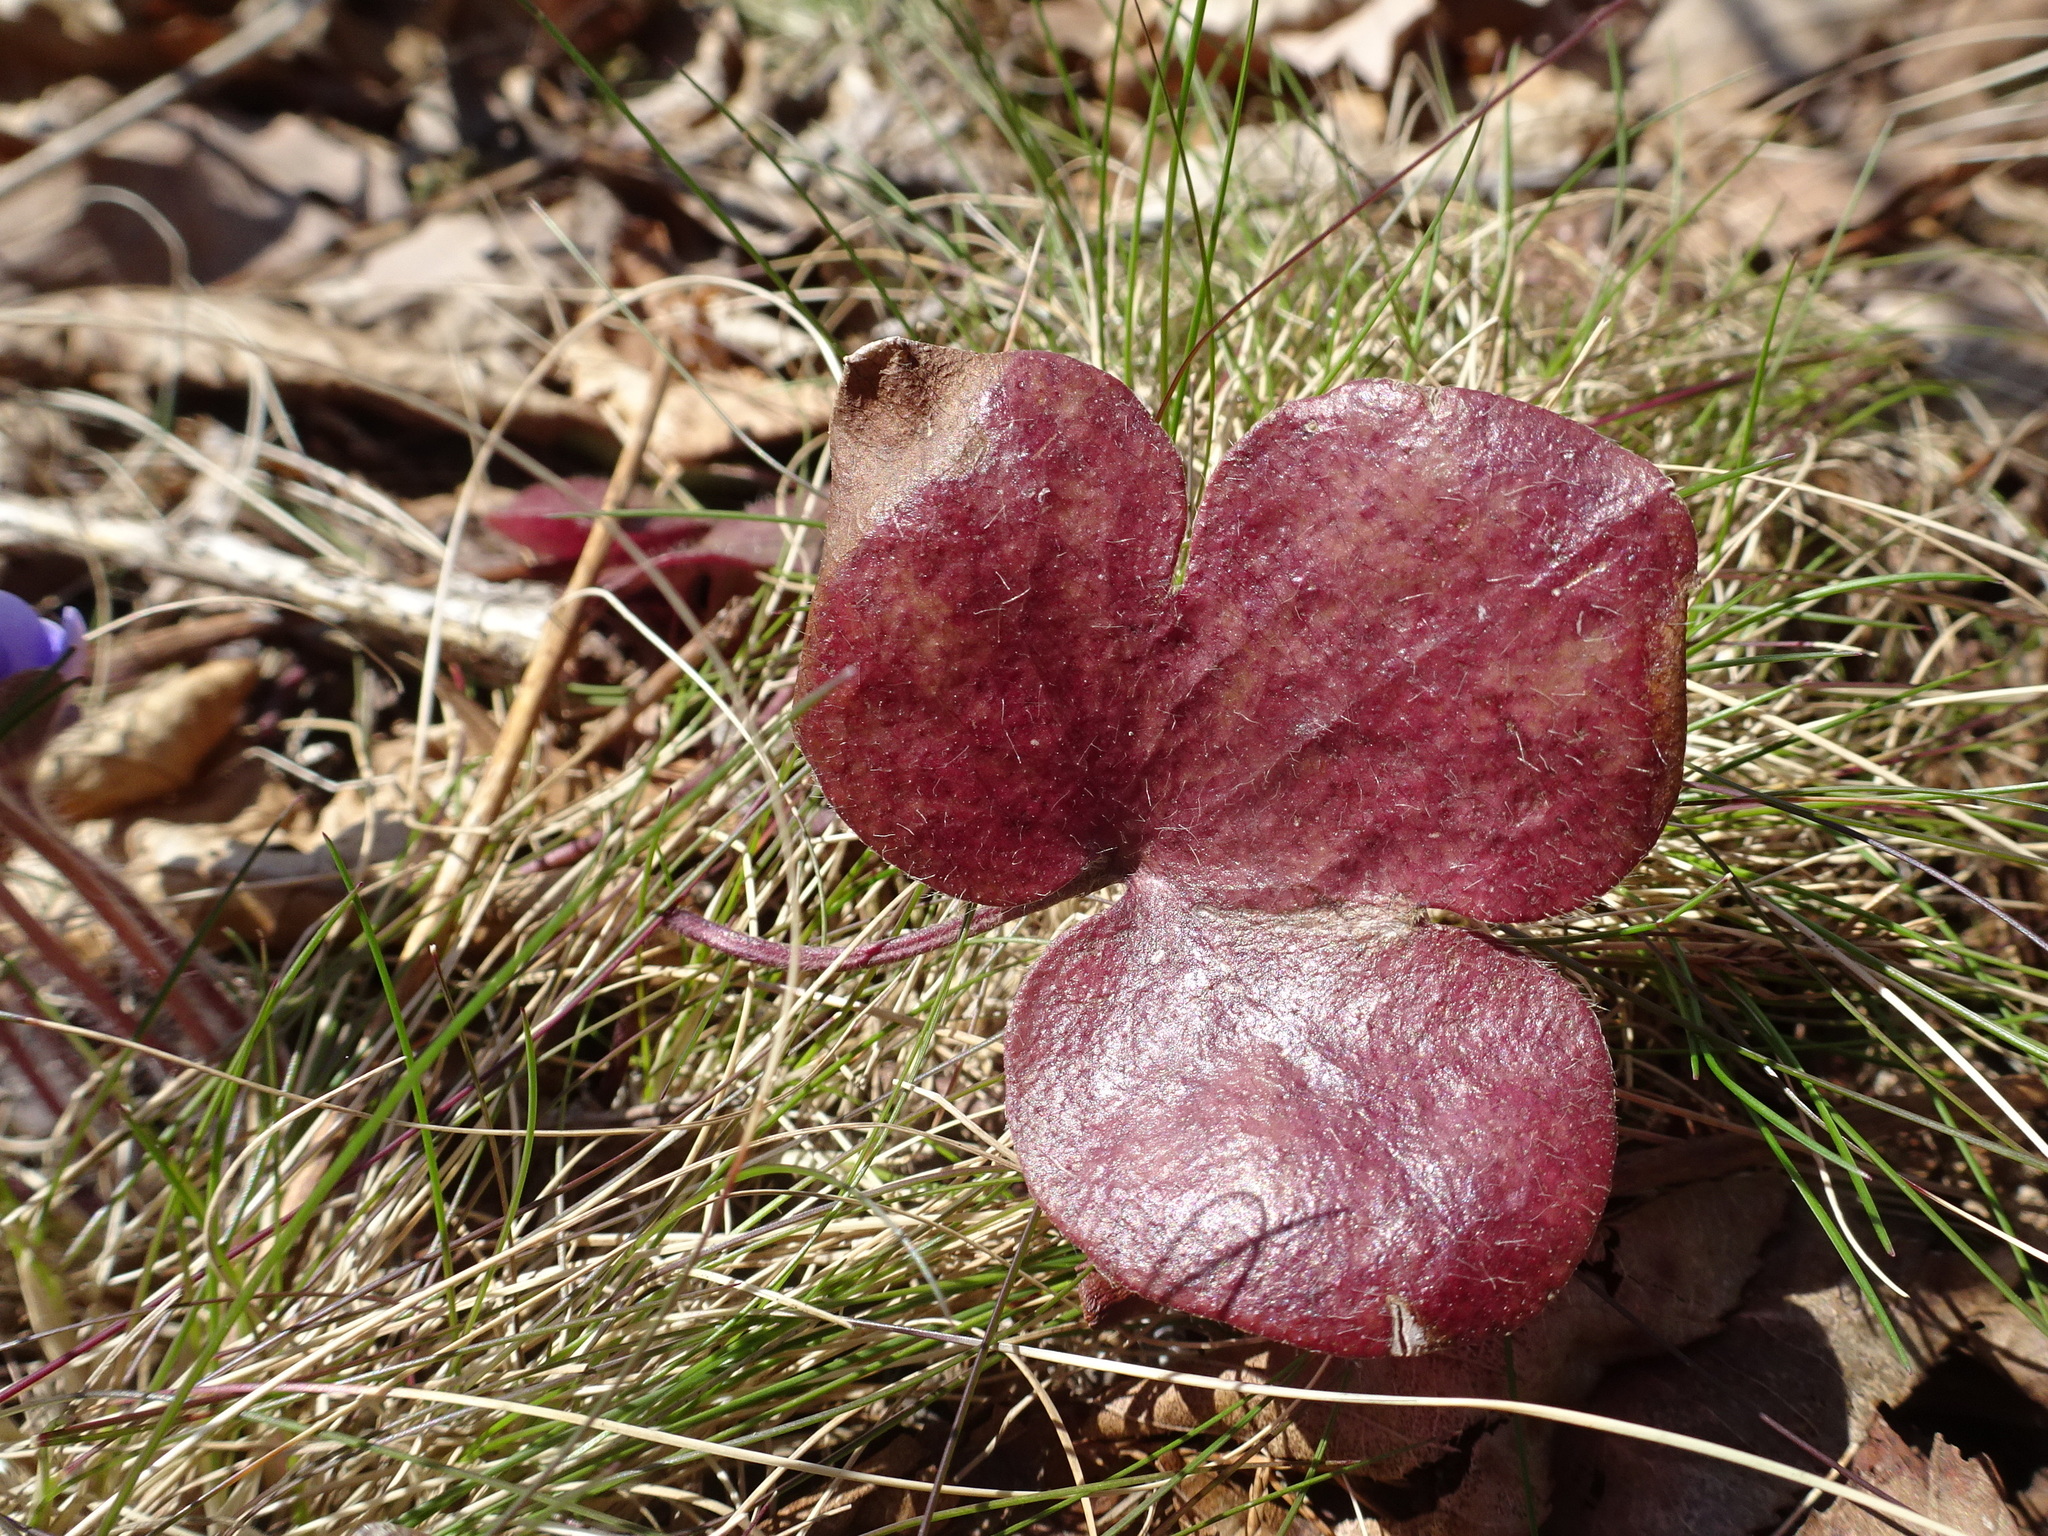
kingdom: Plantae
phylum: Tracheophyta
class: Magnoliopsida
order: Ranunculales
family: Ranunculaceae
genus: Hepatica
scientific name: Hepatica americana
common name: American hepatica
